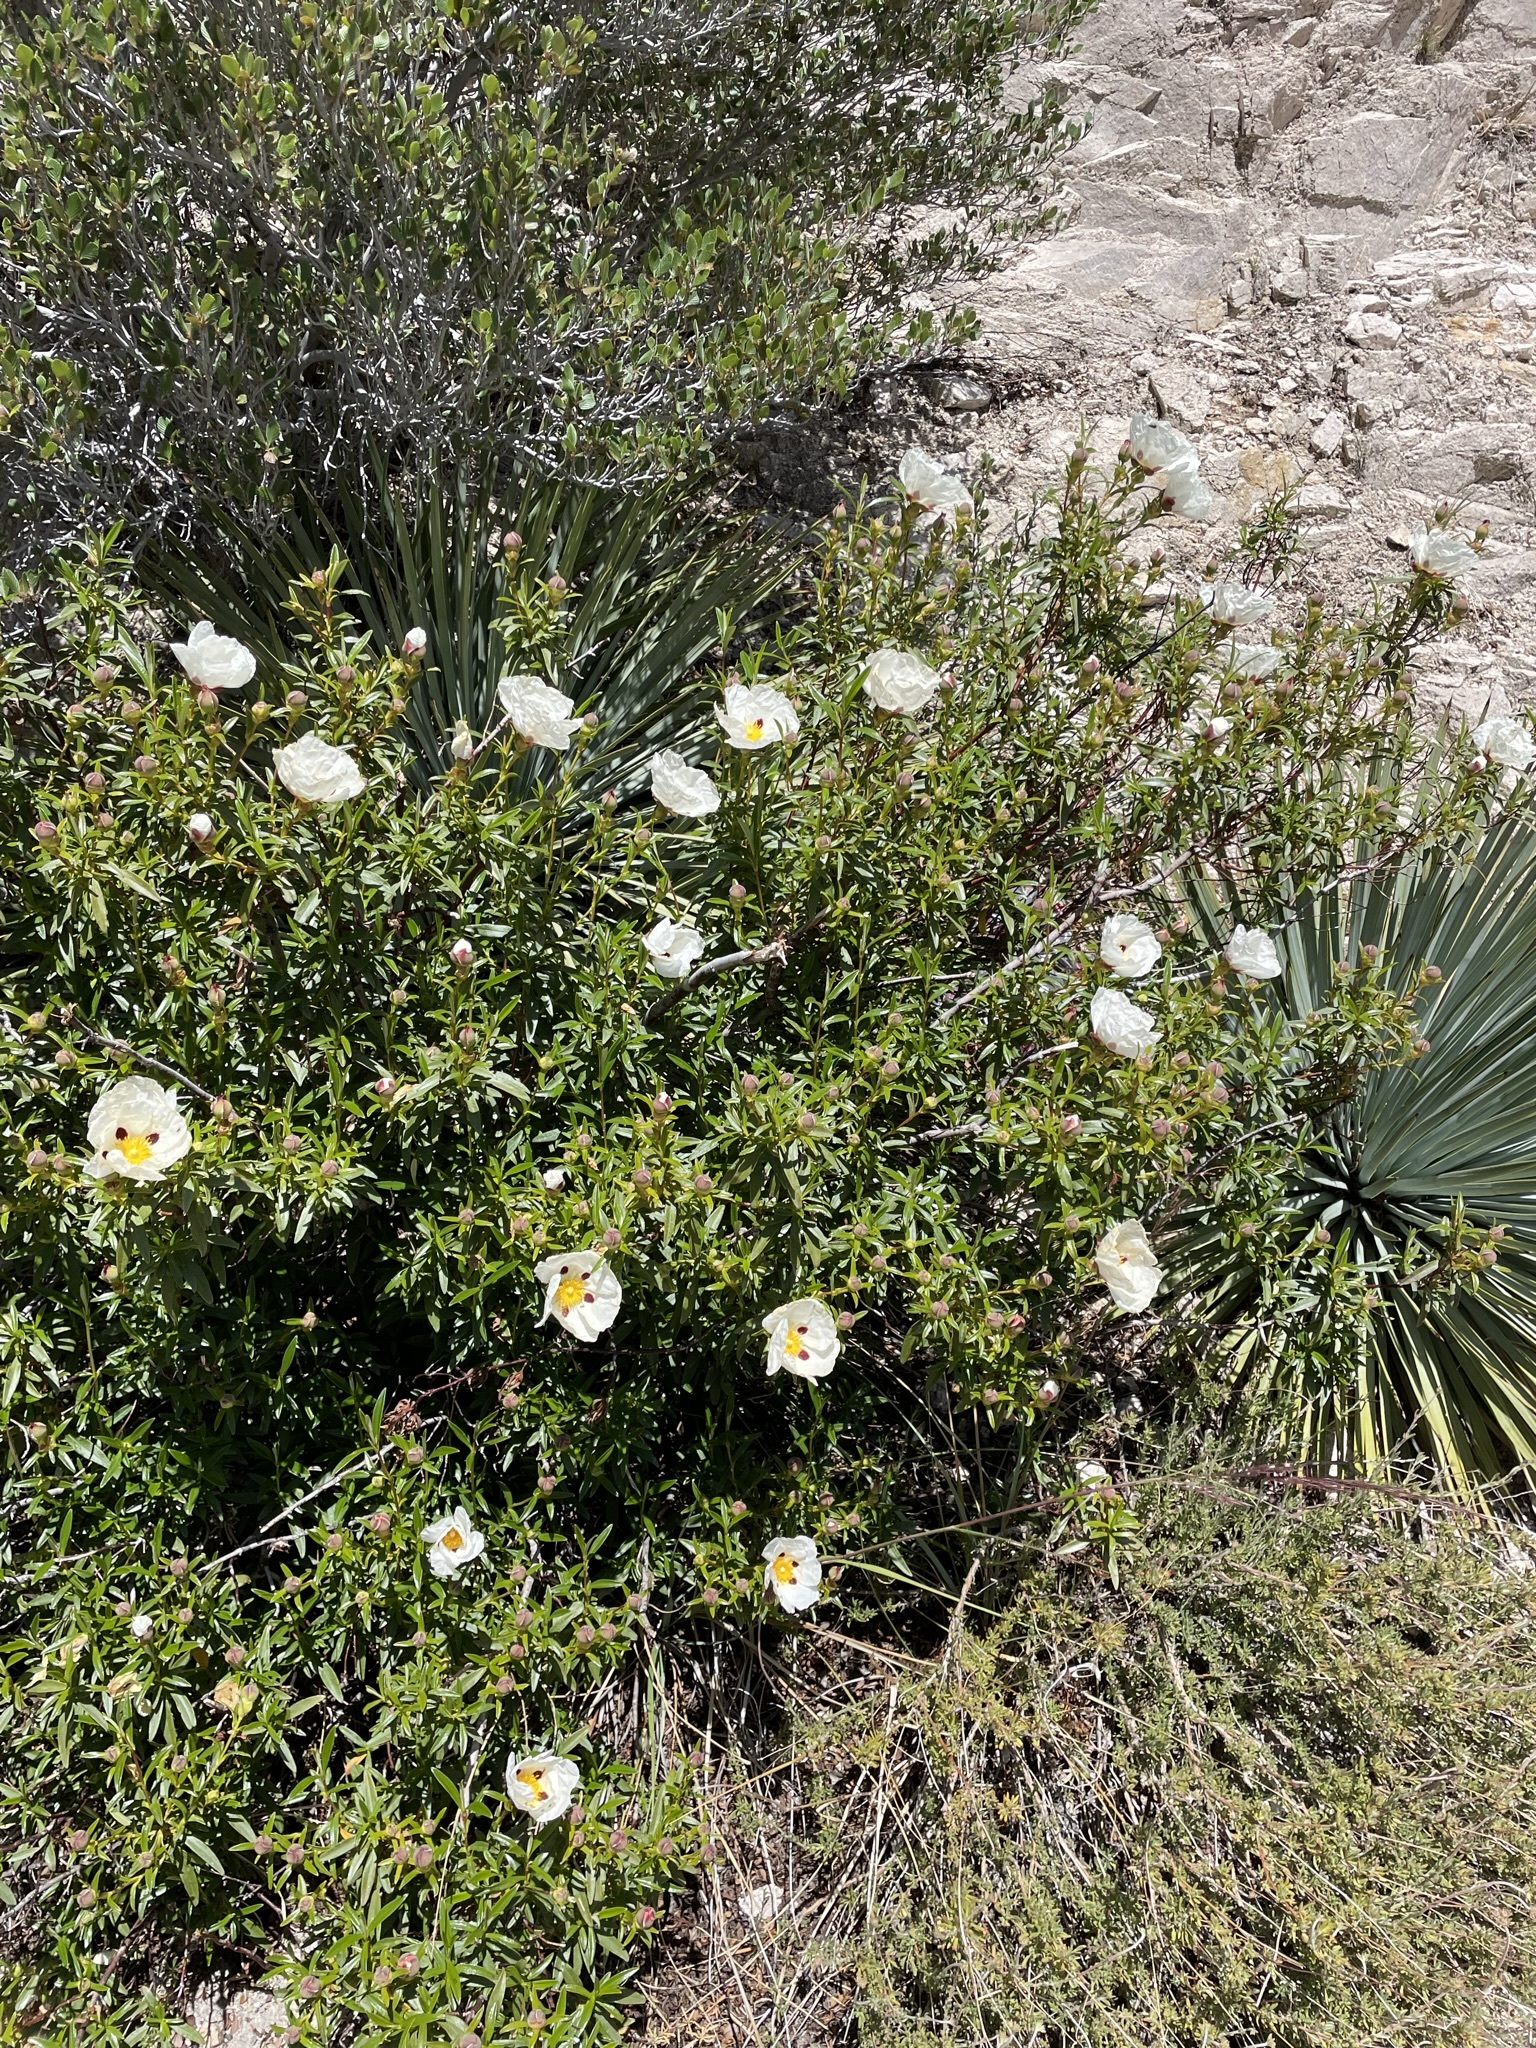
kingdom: Plantae
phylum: Tracheophyta
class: Magnoliopsida
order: Malvales
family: Cistaceae
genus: Cistus
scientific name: Cistus ladanifer
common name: Common gum cistus
